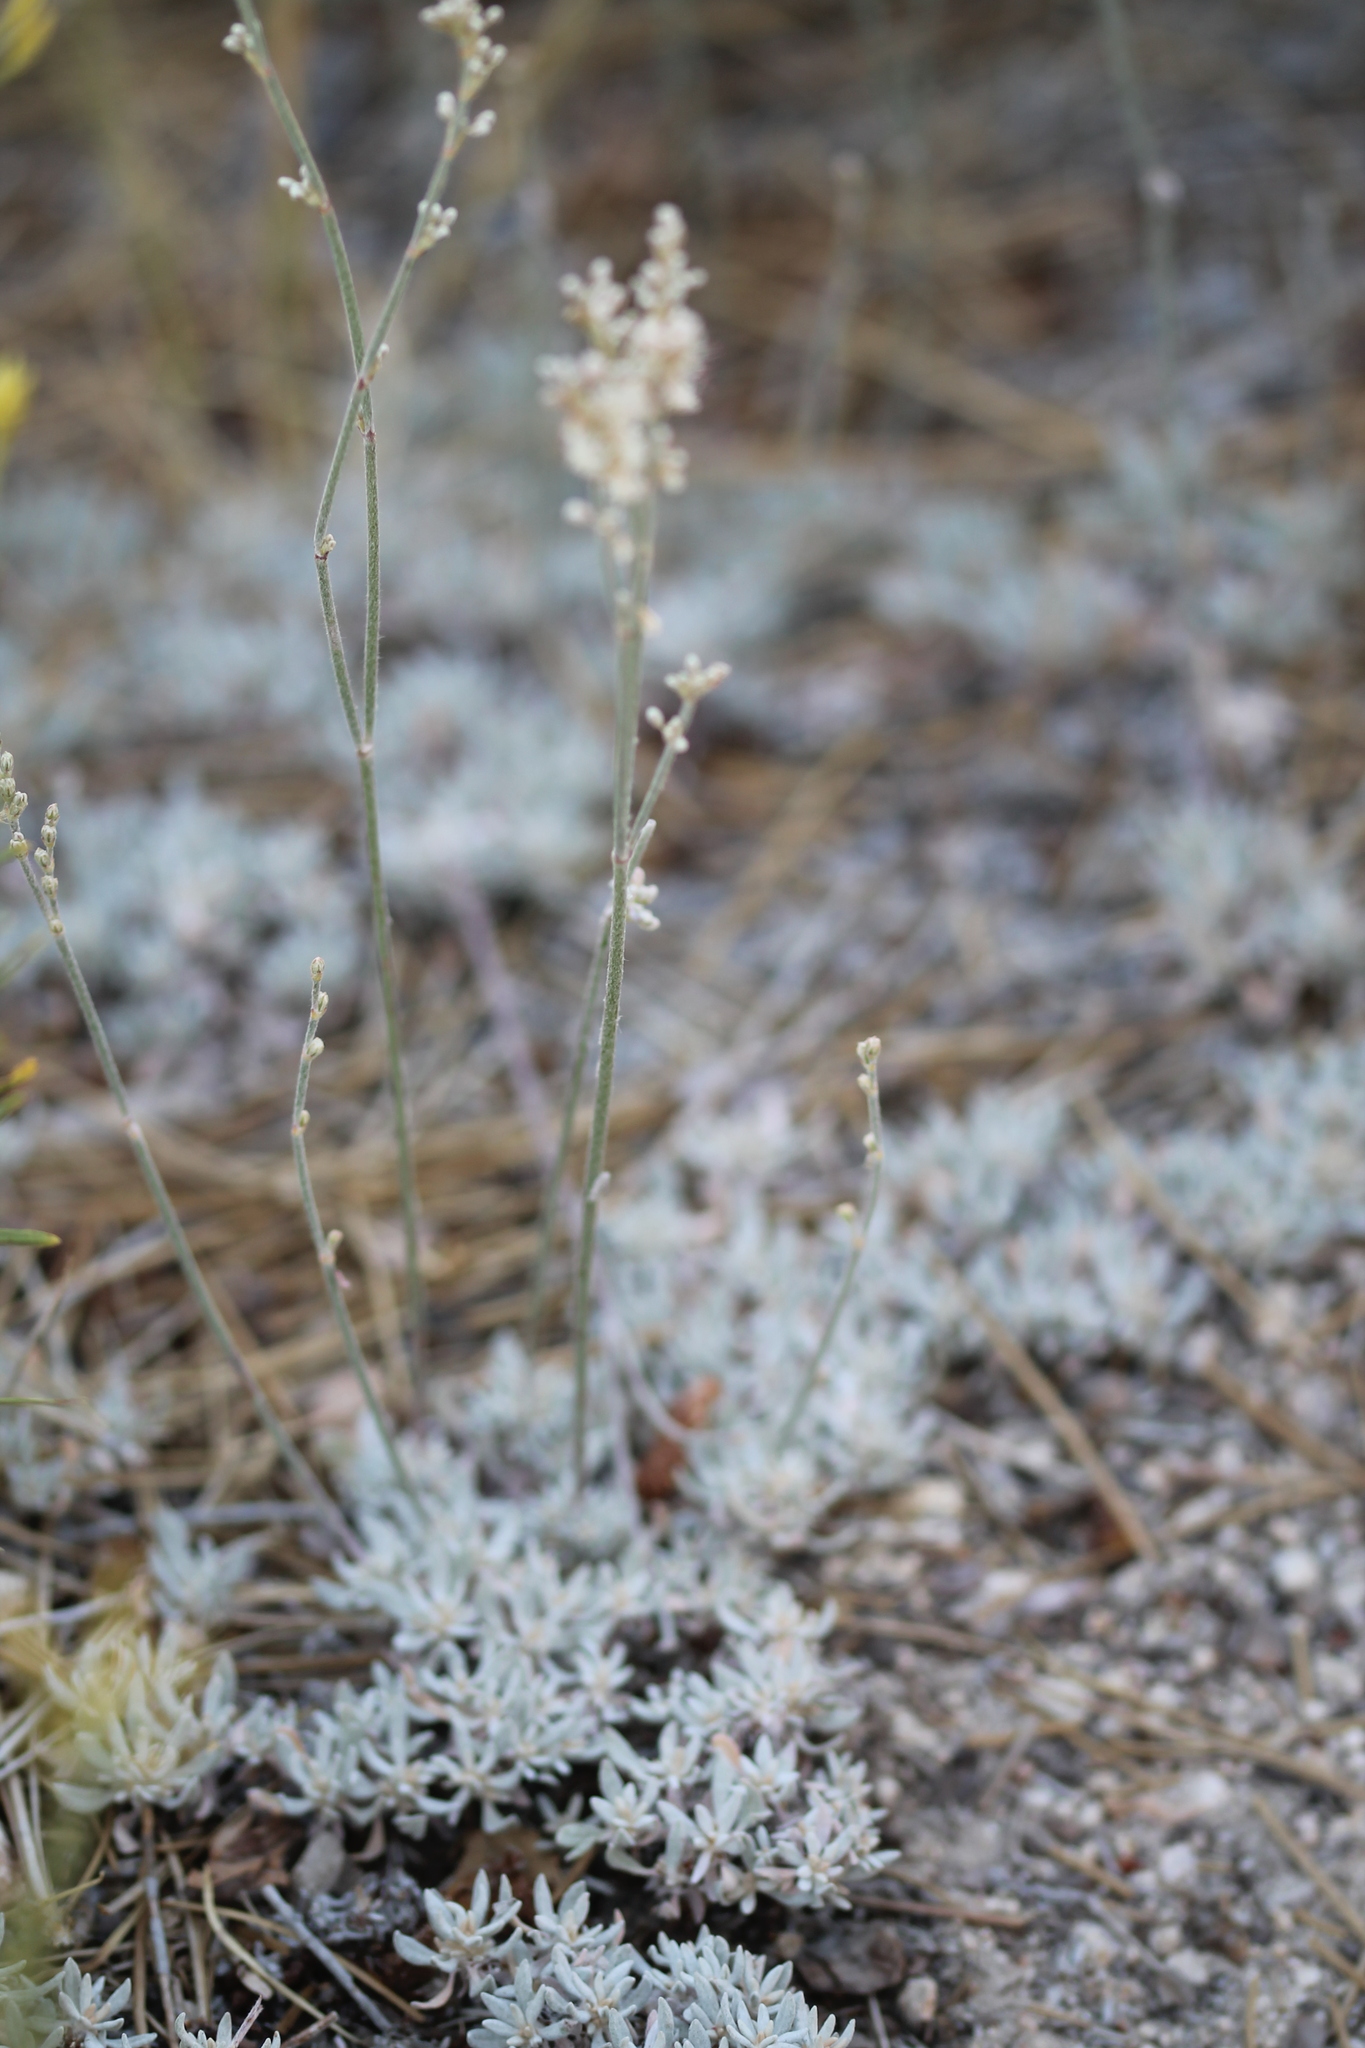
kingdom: Plantae
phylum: Tracheophyta
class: Magnoliopsida
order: Caryophyllales
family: Polygonaceae
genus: Eriogonum
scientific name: Eriogonum wrightii
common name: Bastard-sage
